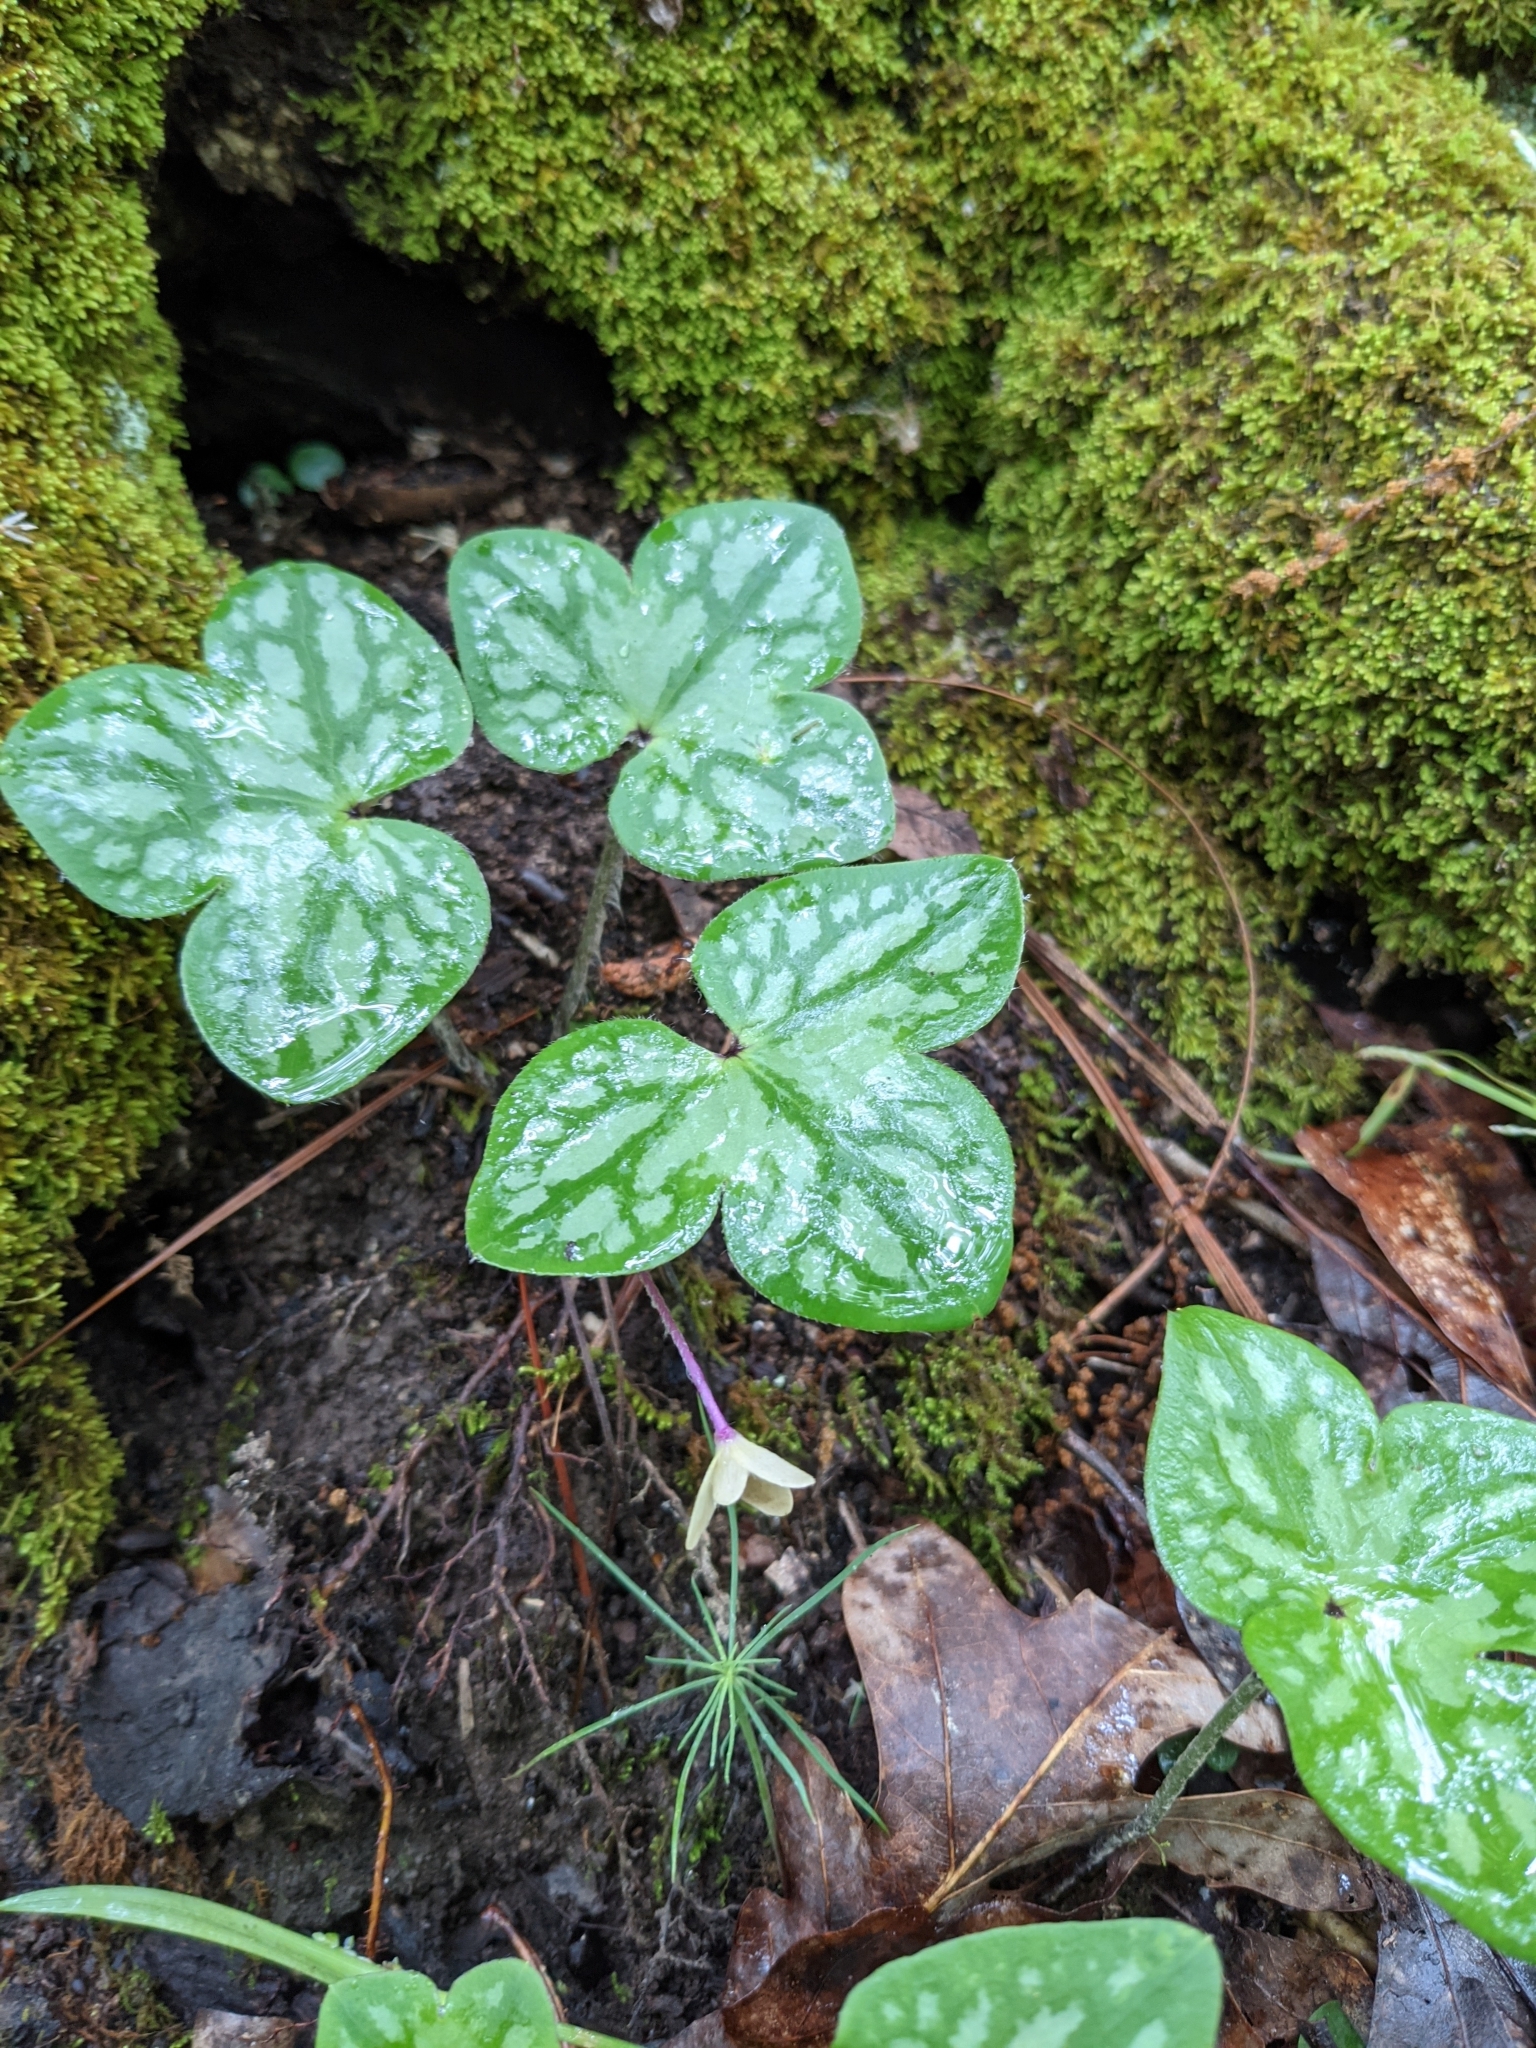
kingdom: Plantae
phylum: Tracheophyta
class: Magnoliopsida
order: Ranunculales
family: Ranunculaceae
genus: Hepatica
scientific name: Hepatica americana
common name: American hepatica
